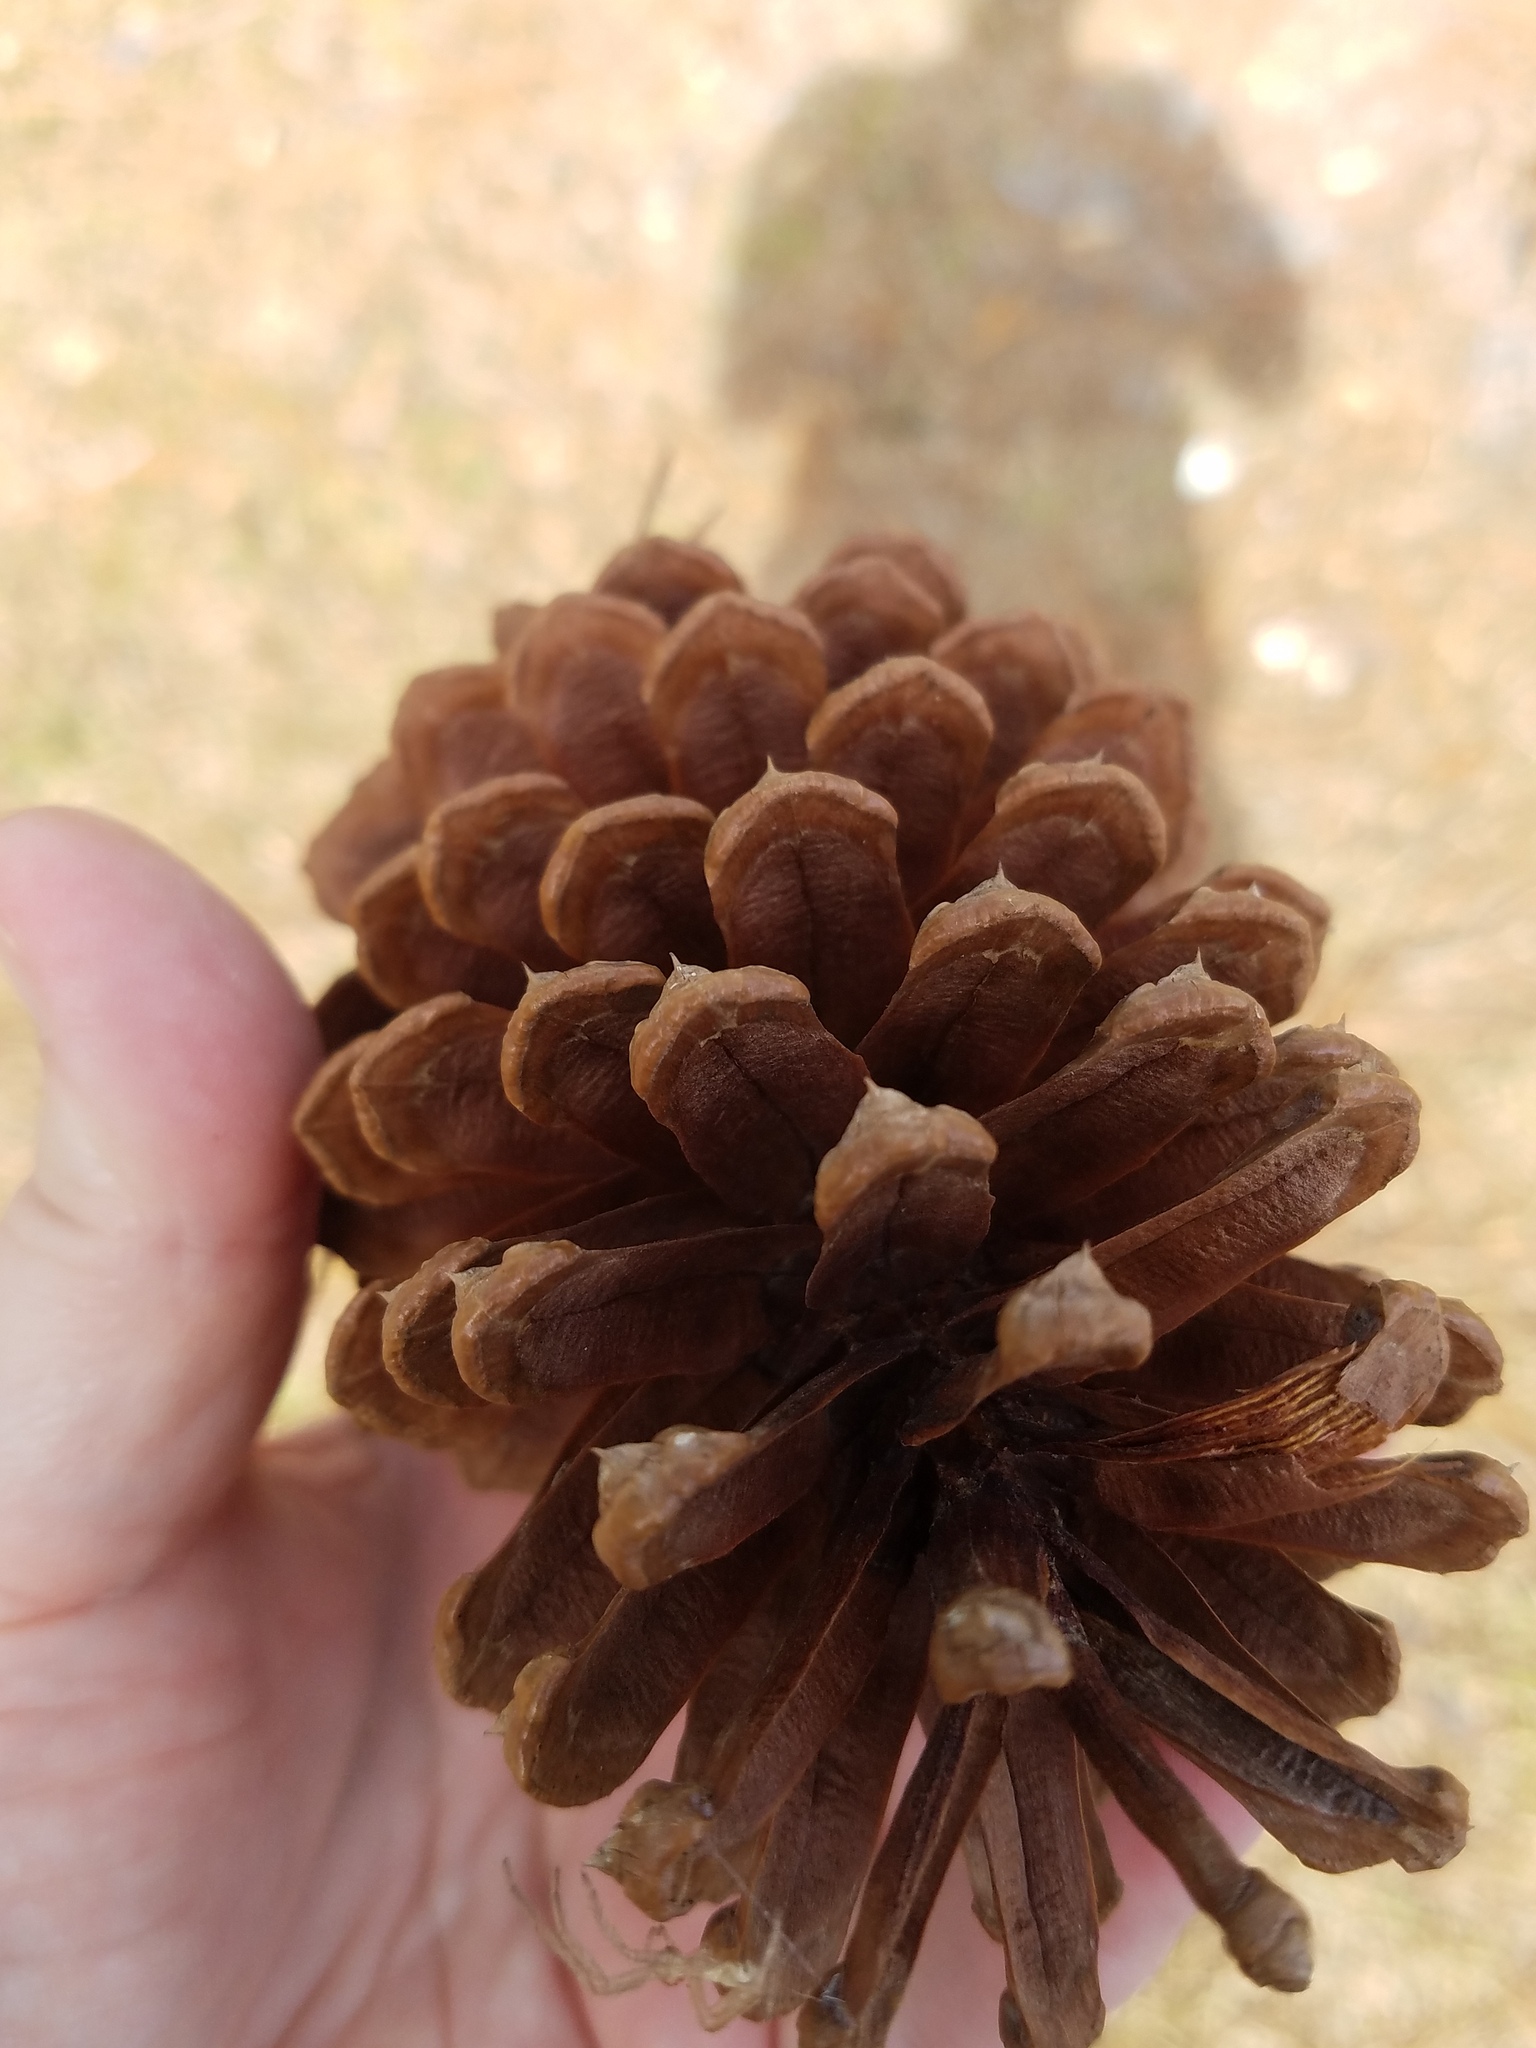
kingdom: Plantae
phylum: Tracheophyta
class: Pinopsida
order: Pinales
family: Pinaceae
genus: Pinus
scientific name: Pinus elliottii
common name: Slash pine
